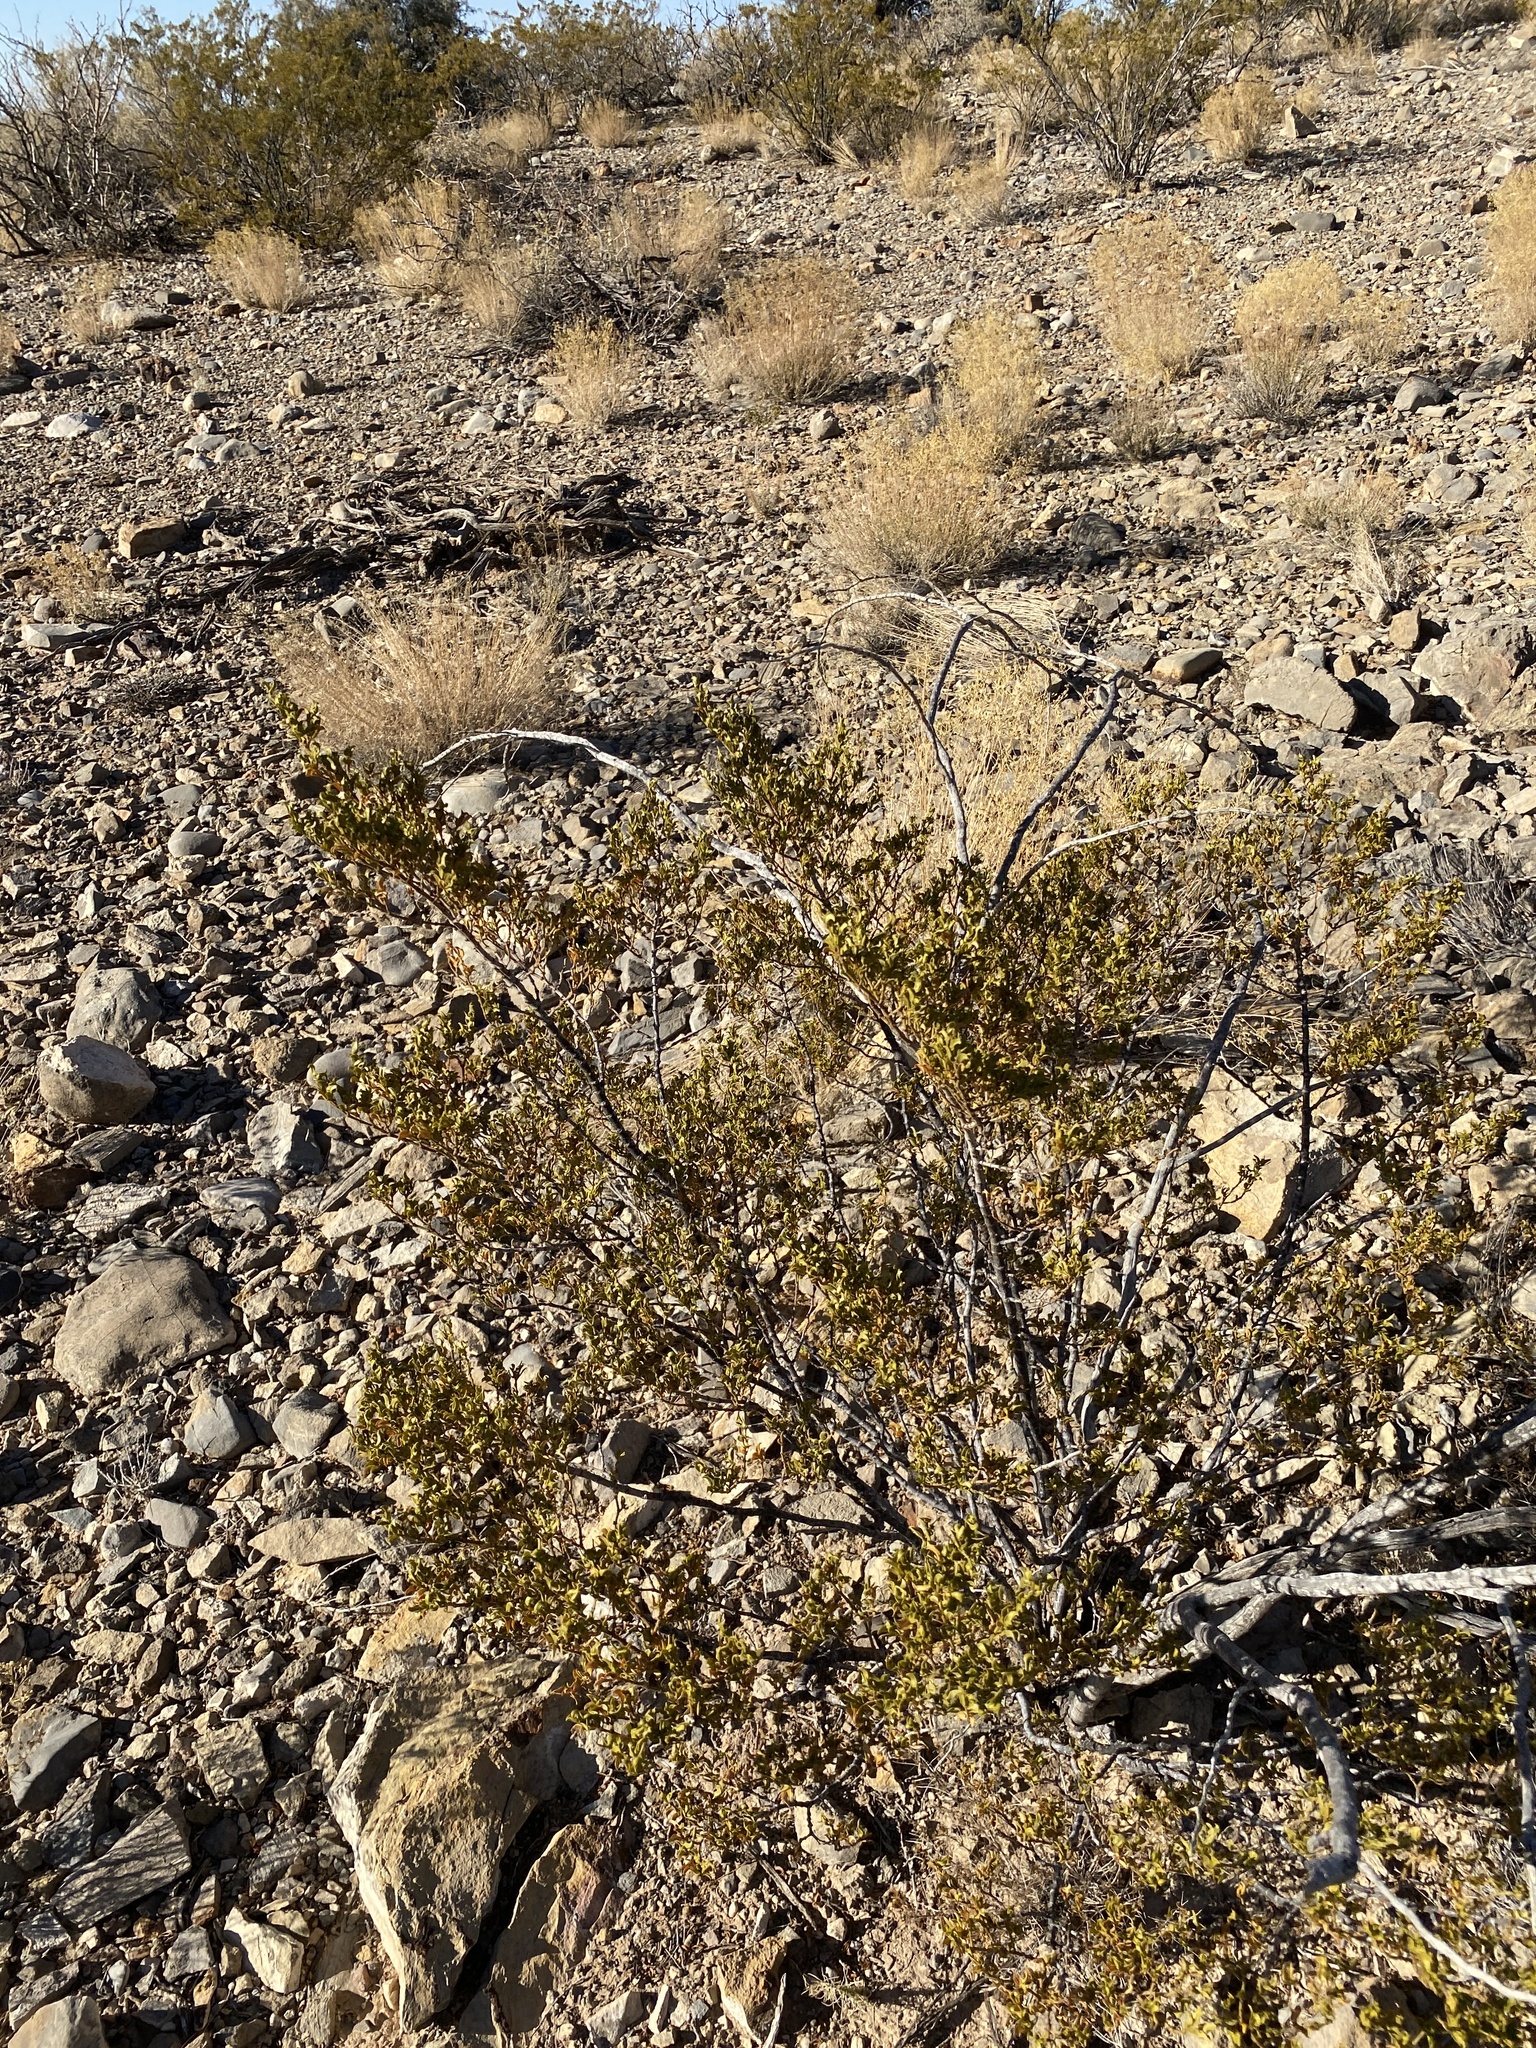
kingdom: Plantae
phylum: Tracheophyta
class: Magnoliopsida
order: Zygophyllales
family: Zygophyllaceae
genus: Larrea
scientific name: Larrea tridentata
